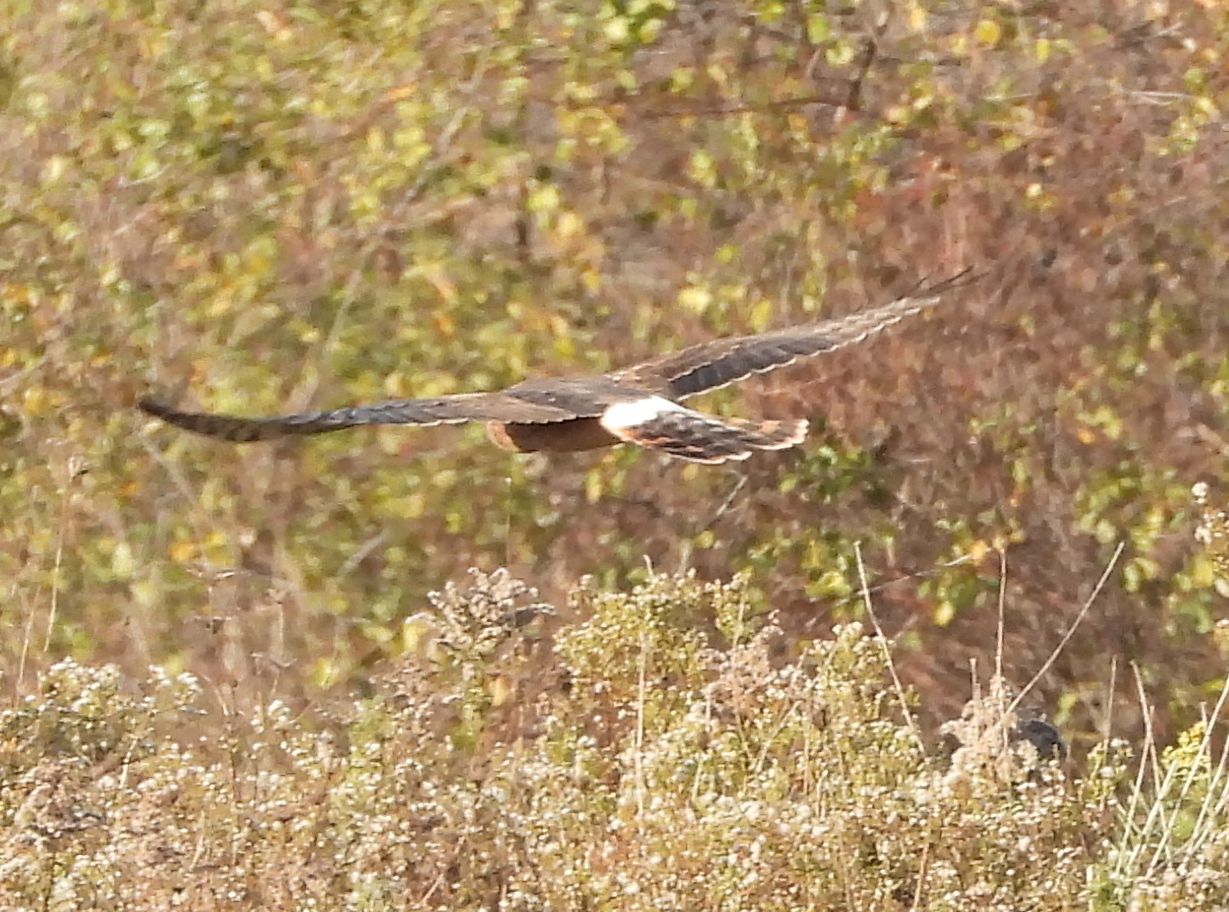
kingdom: Animalia
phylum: Chordata
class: Aves
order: Accipitriformes
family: Accipitridae
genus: Circus
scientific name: Circus cyaneus
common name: Hen harrier
